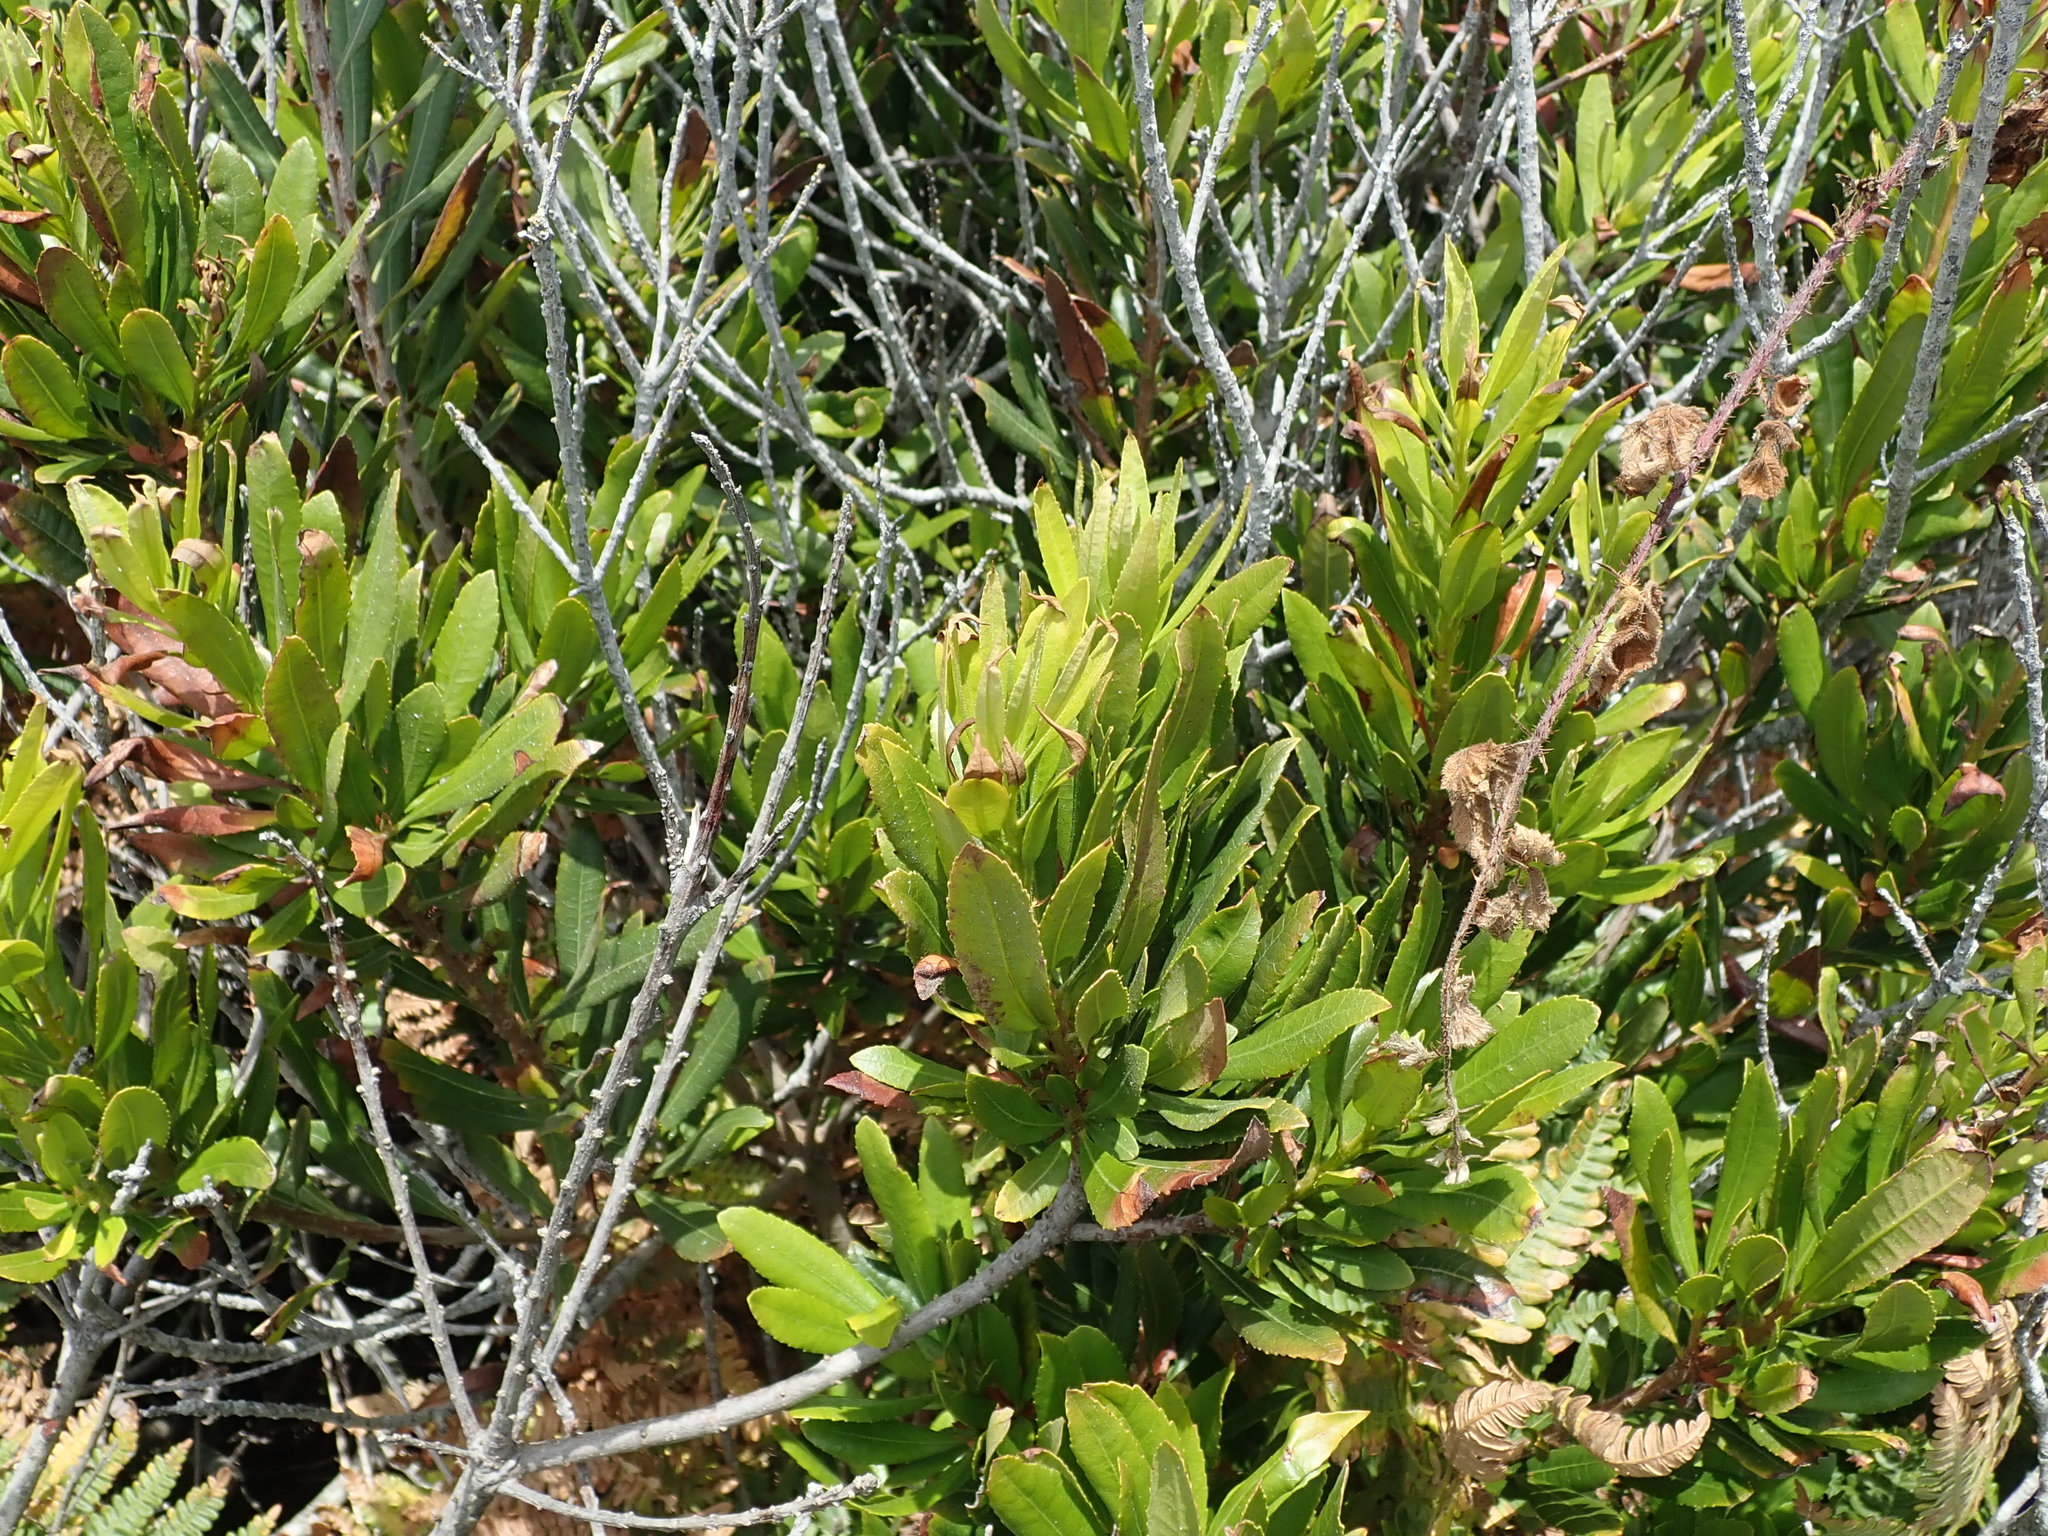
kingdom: Plantae
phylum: Tracheophyta
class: Magnoliopsida
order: Fagales
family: Myricaceae
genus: Morella
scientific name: Morella californica
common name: California wax-myrtle
